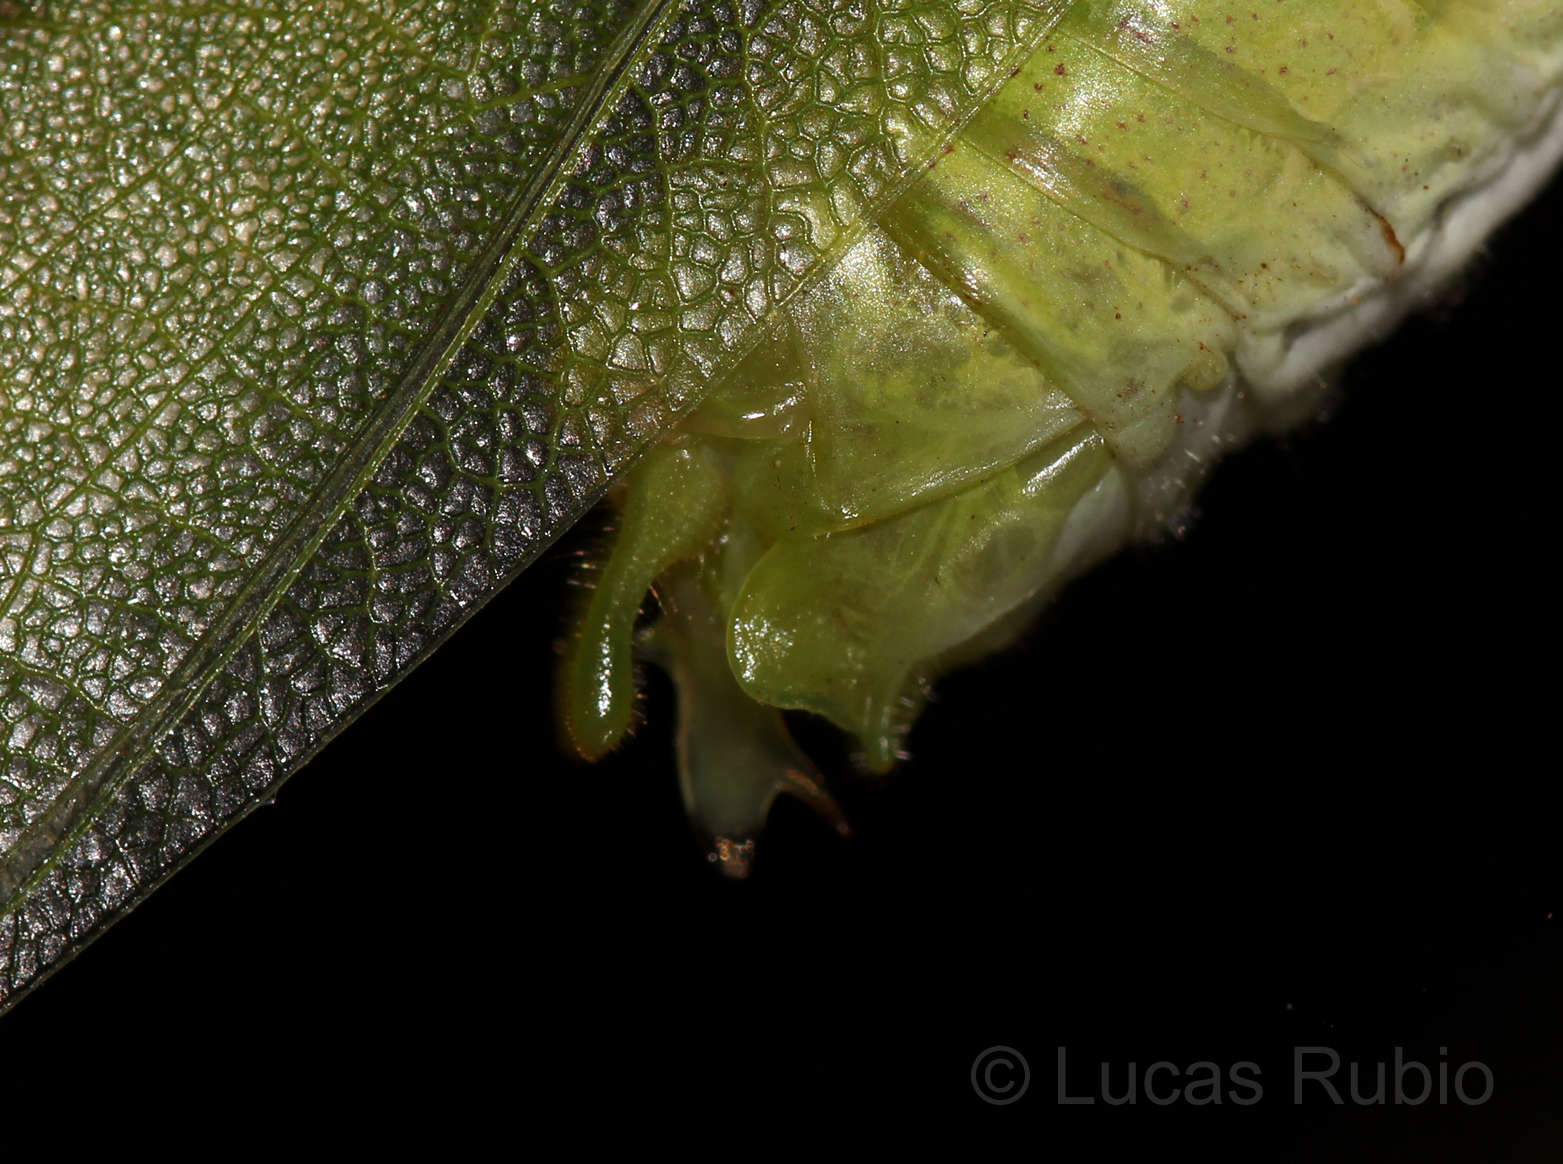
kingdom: Animalia
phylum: Arthropoda
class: Insecta
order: Orthoptera
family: Tettigoniidae
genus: Grammadera
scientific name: Grammadera steinbachi
